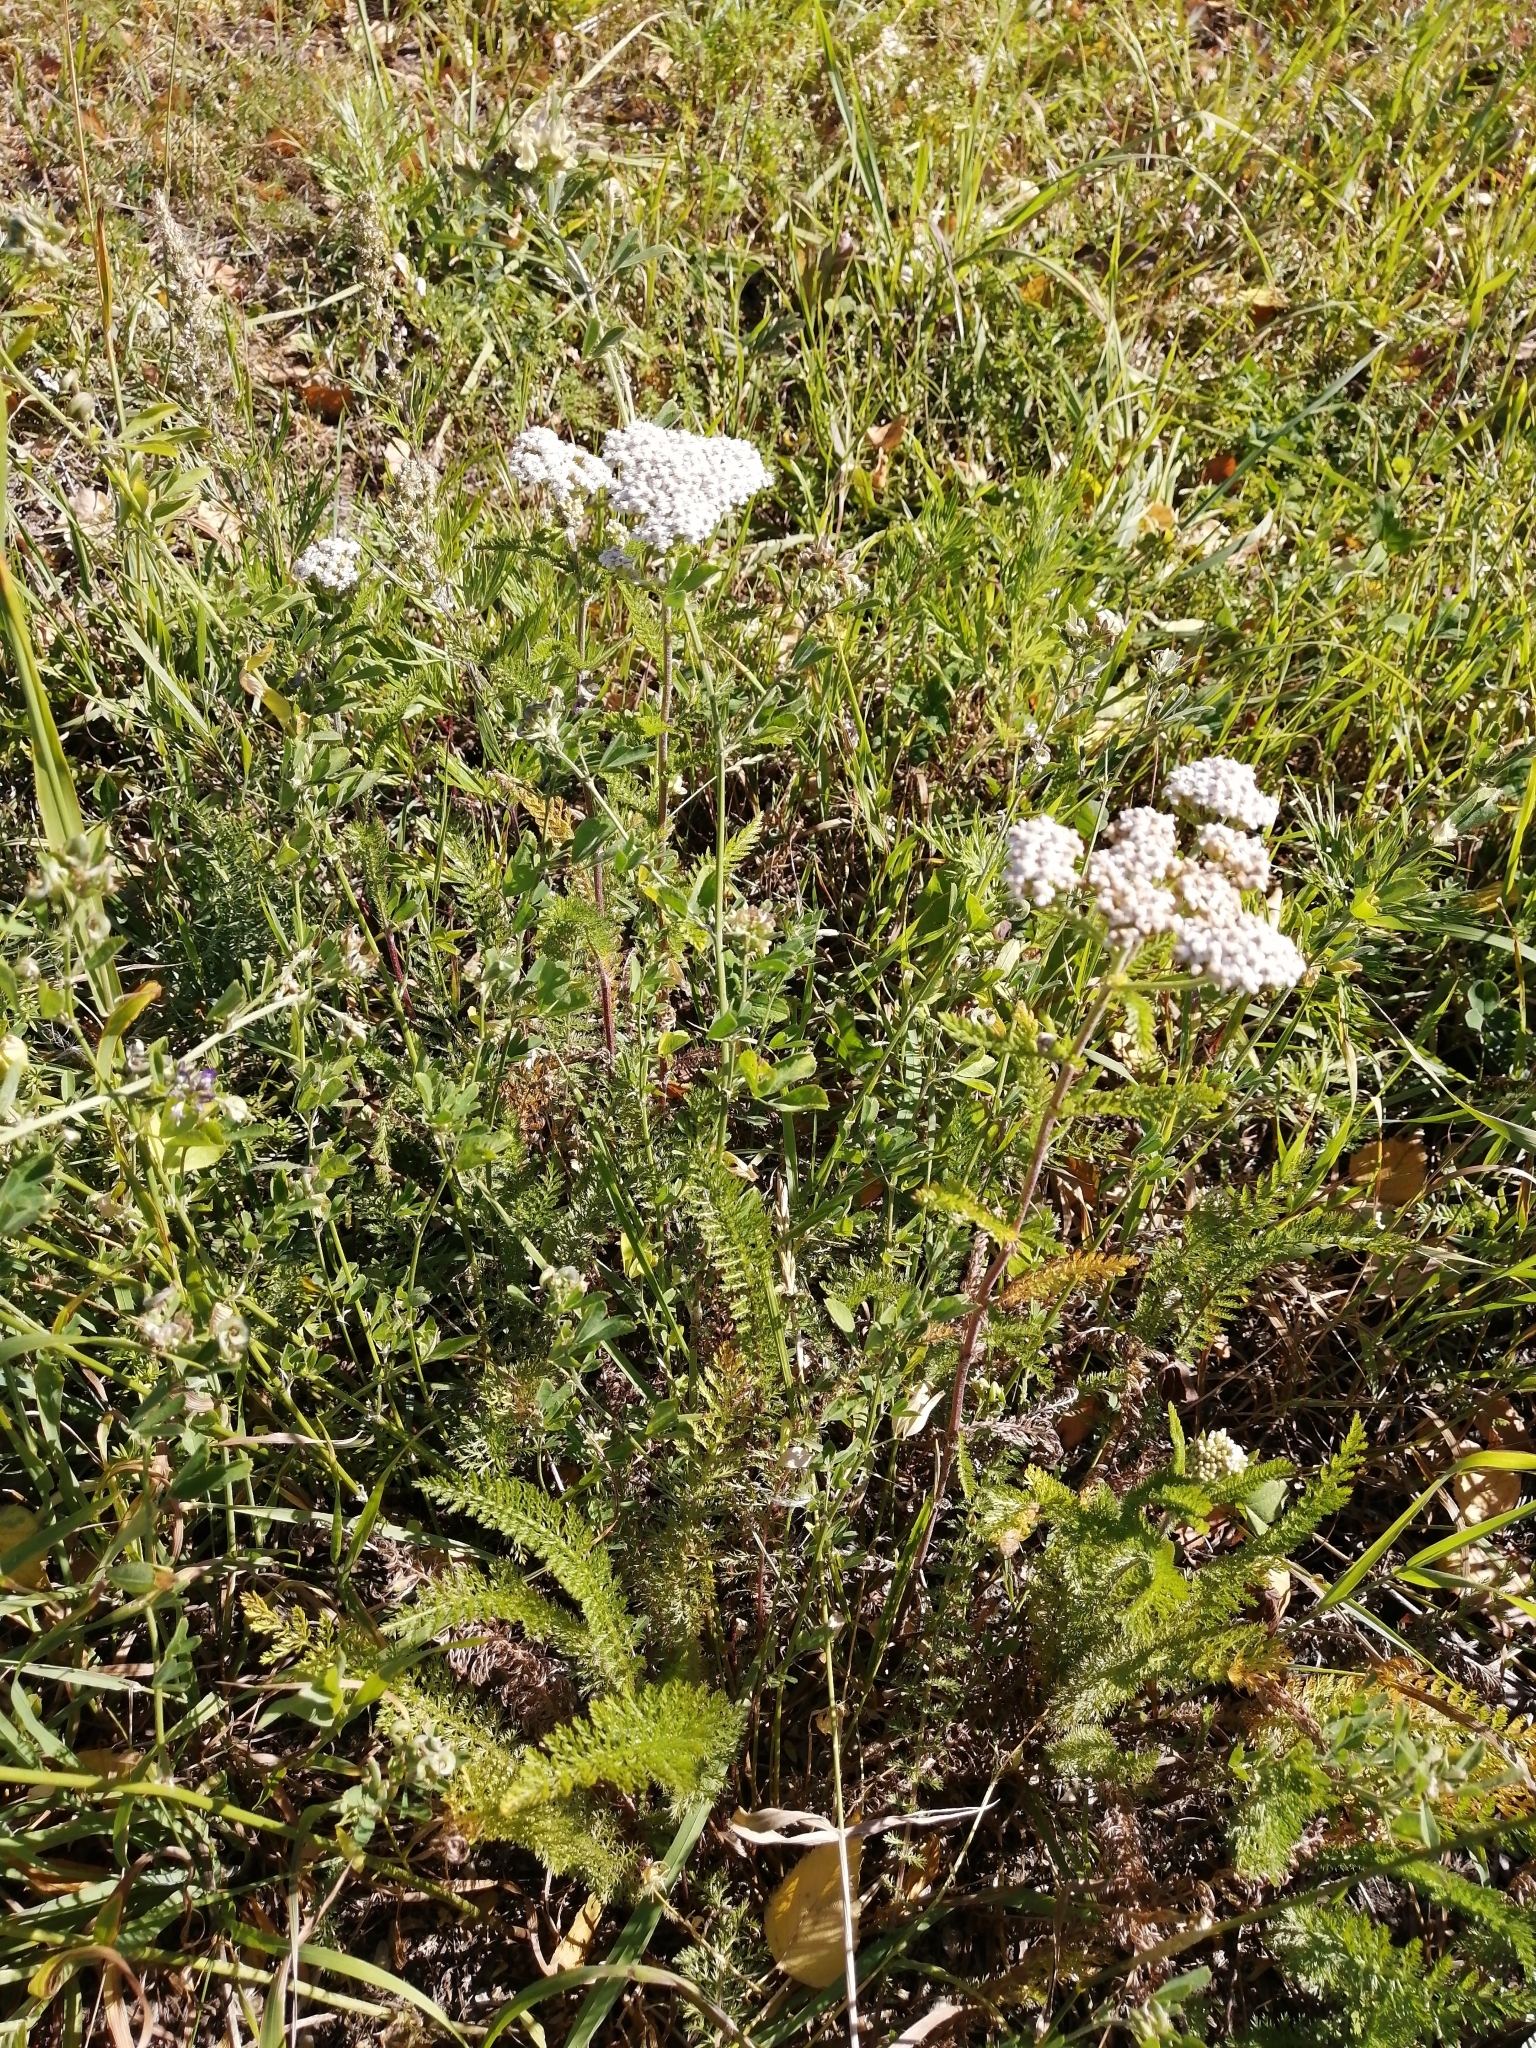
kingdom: Plantae
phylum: Tracheophyta
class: Magnoliopsida
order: Asterales
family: Asteraceae
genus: Achillea
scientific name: Achillea millefolium
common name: Yarrow
